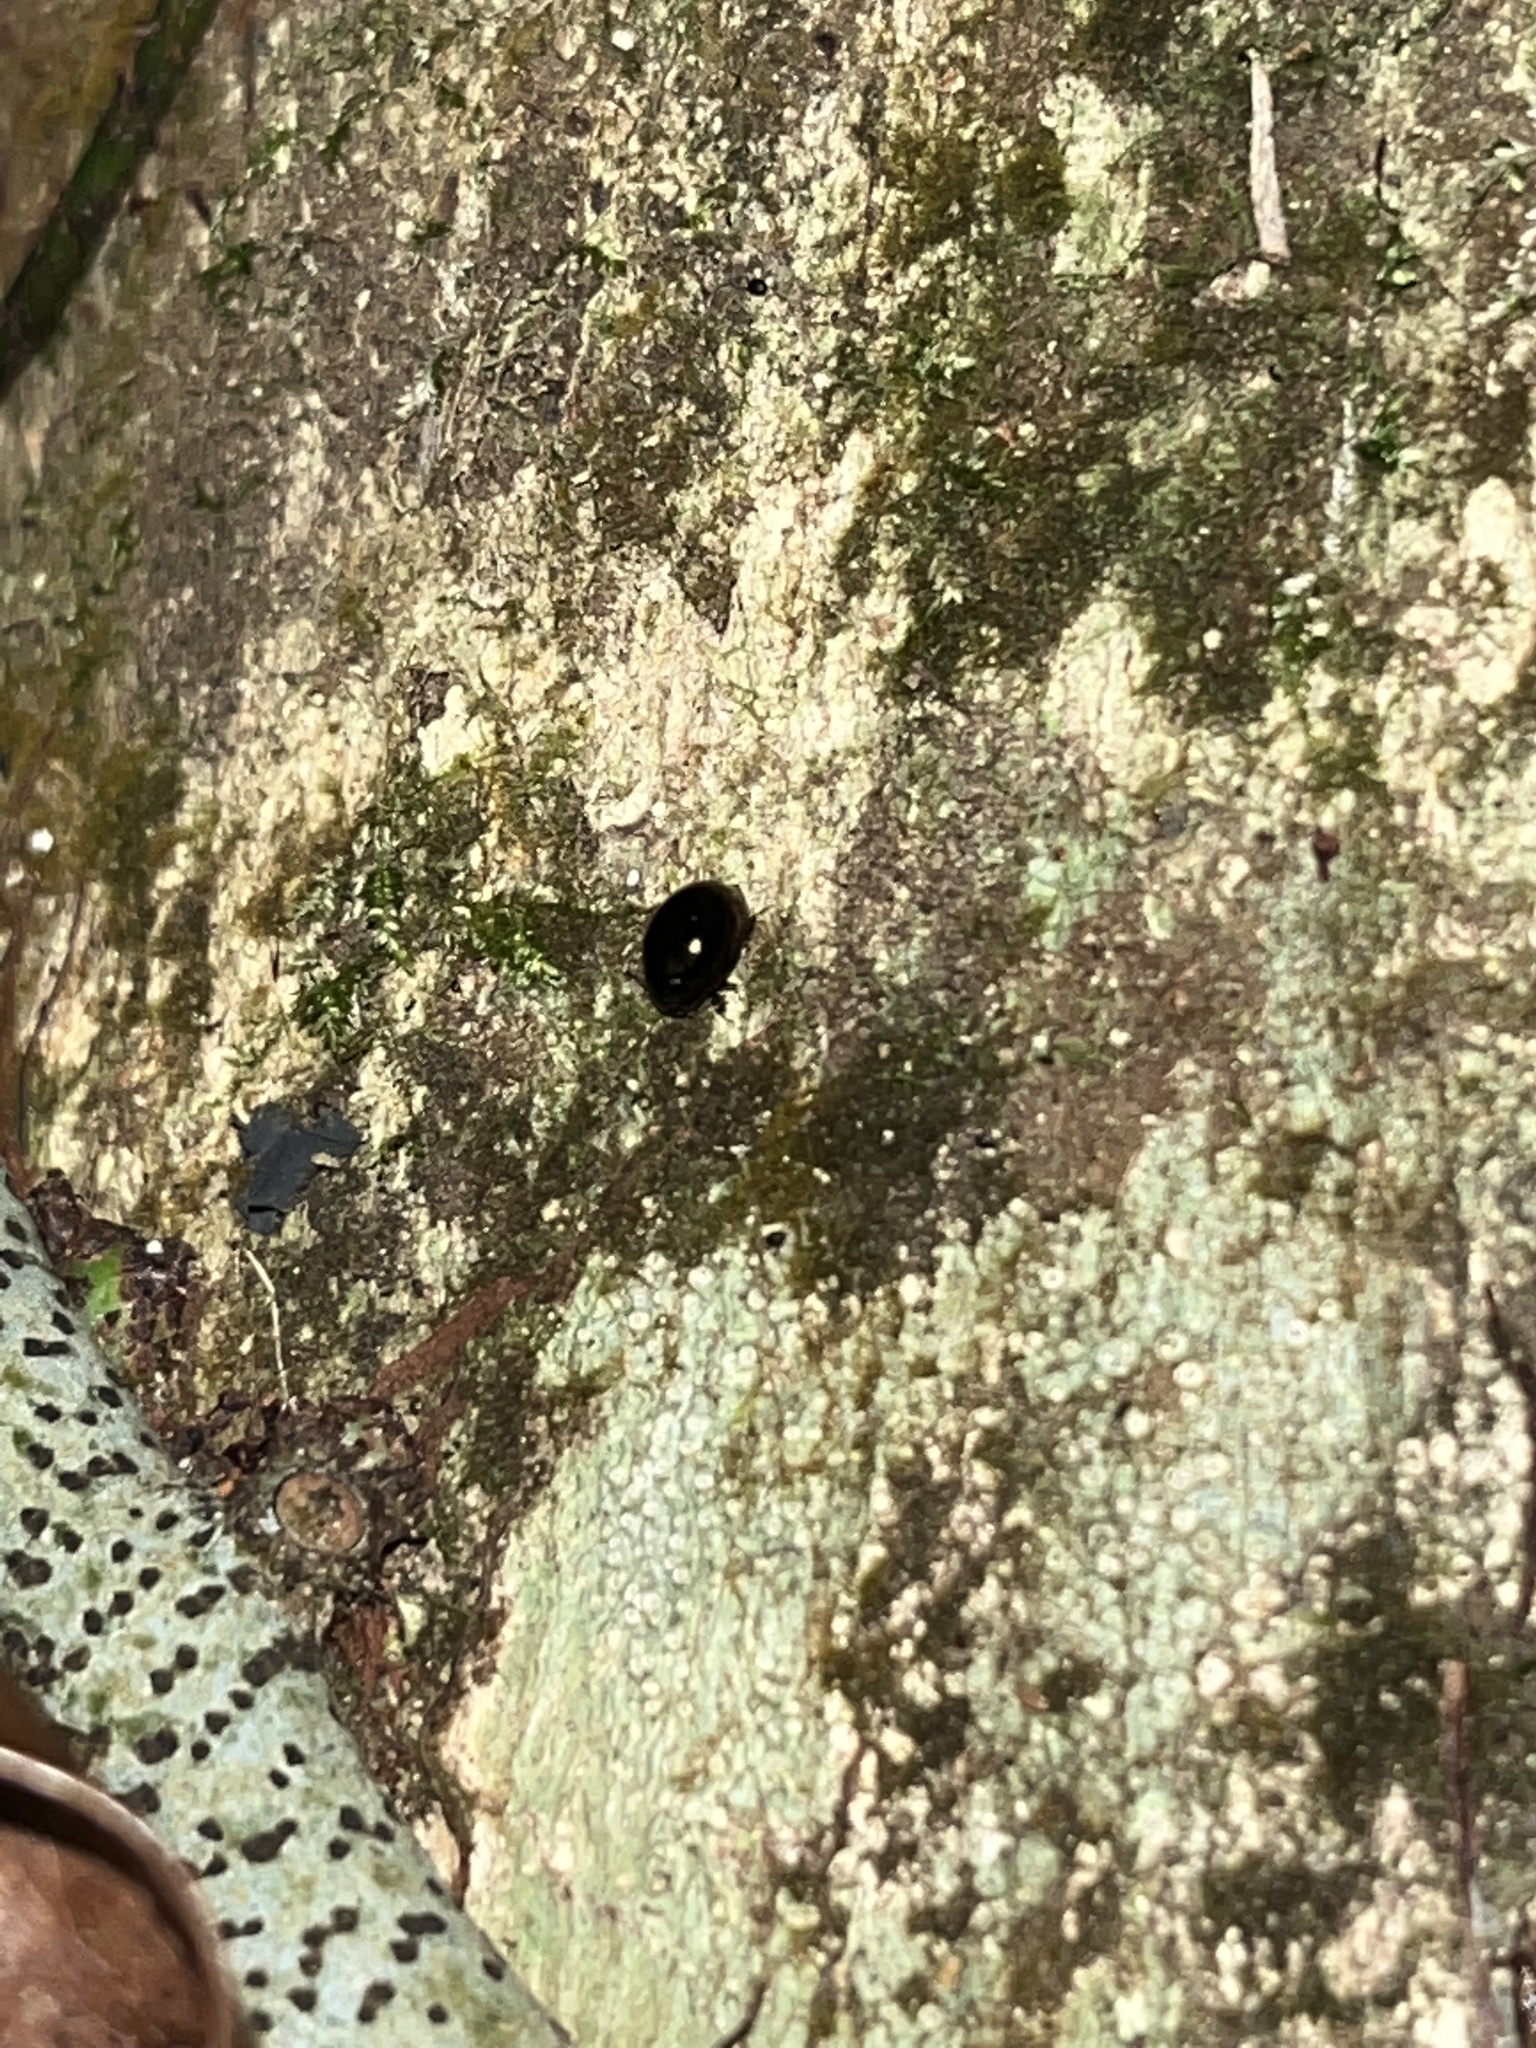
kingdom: Animalia
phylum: Arthropoda
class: Insecta
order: Coleoptera
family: Coccinellidae
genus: Halmus
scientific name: Halmus chalybeus
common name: Steel blue ladybird beetle
